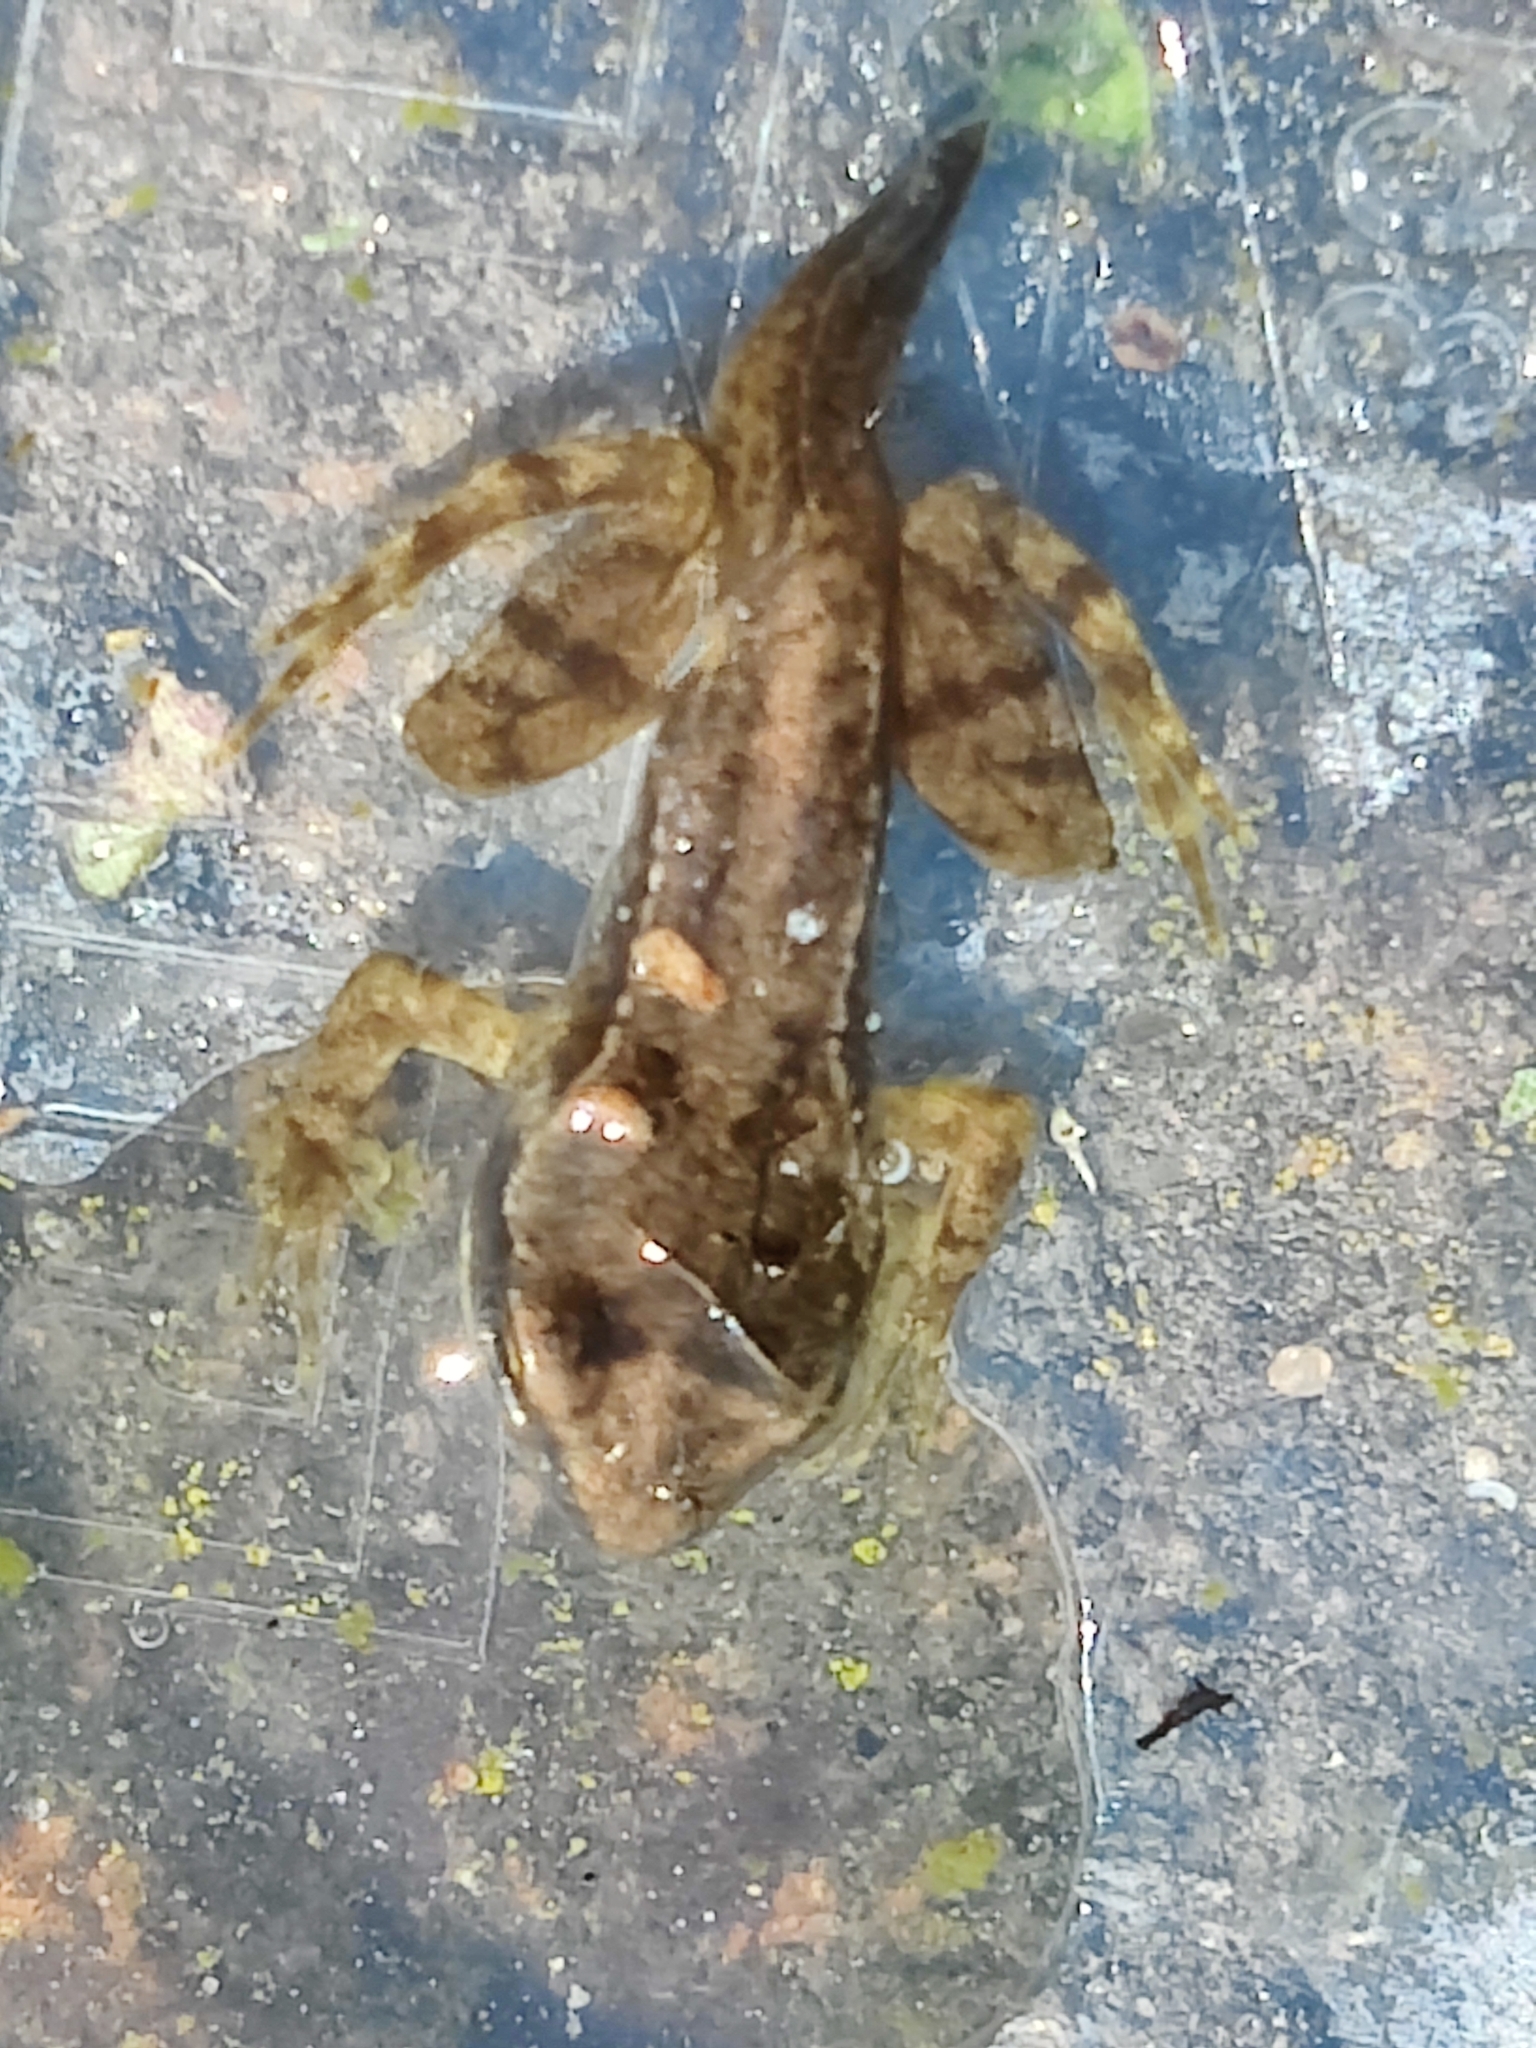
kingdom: Animalia
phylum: Chordata
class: Amphibia
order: Anura
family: Ranidae
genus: Rana
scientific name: Rana temporaria
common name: Common frog
